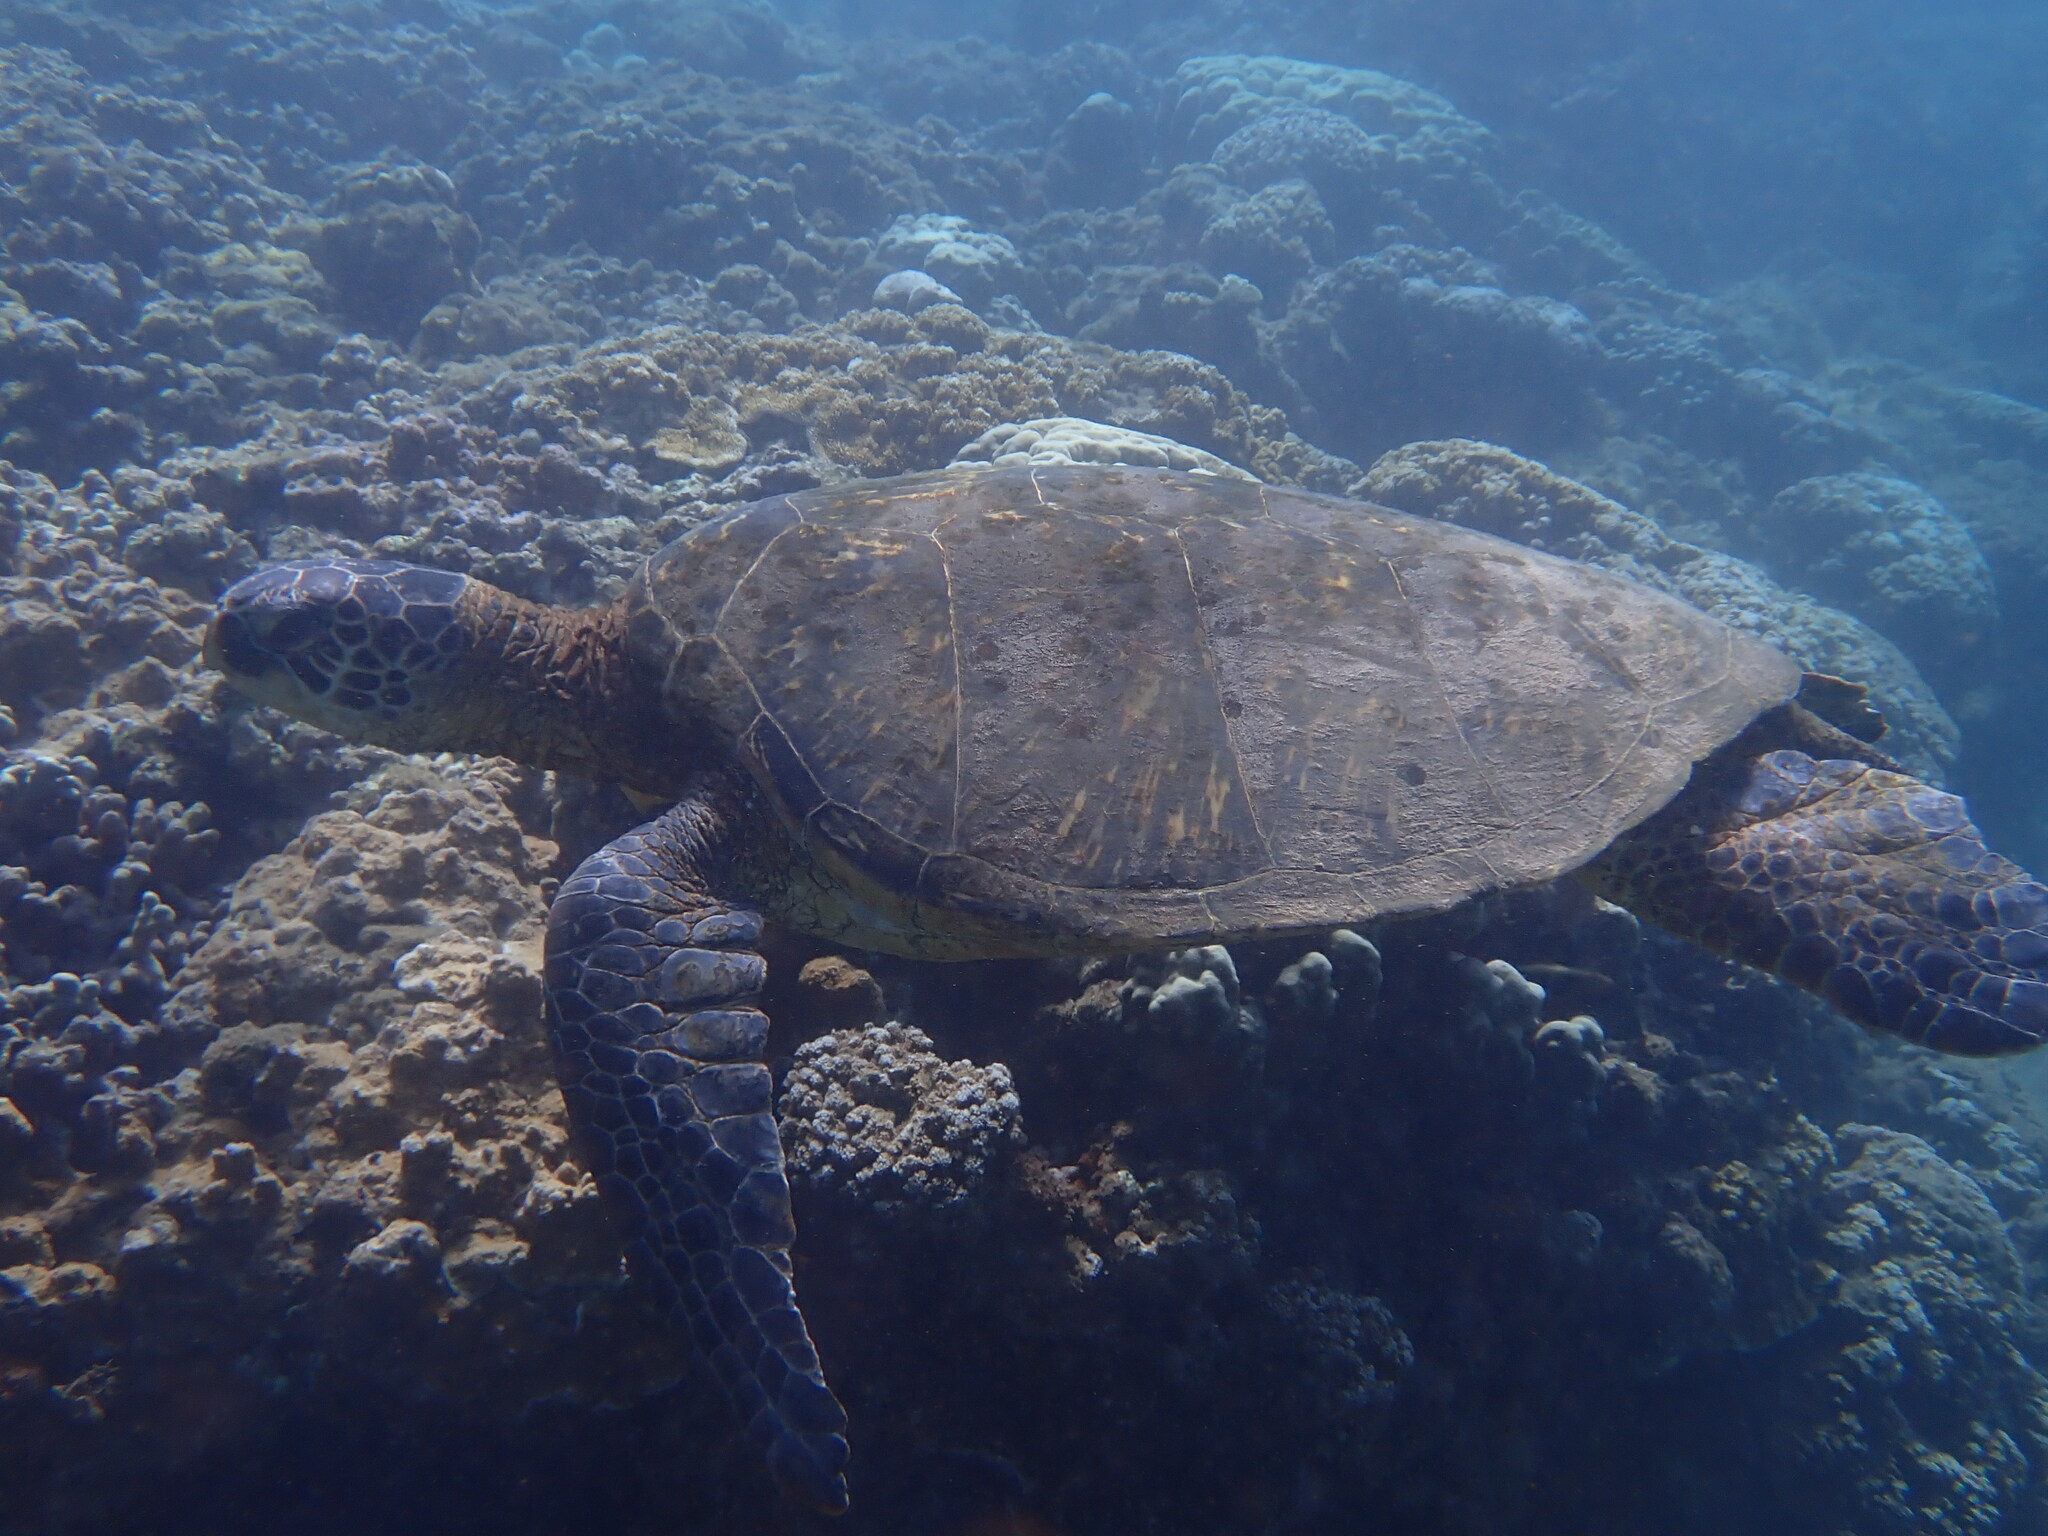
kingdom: Animalia
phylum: Chordata
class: Testudines
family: Cheloniidae
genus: Chelonia
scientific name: Chelonia mydas
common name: Green turtle
